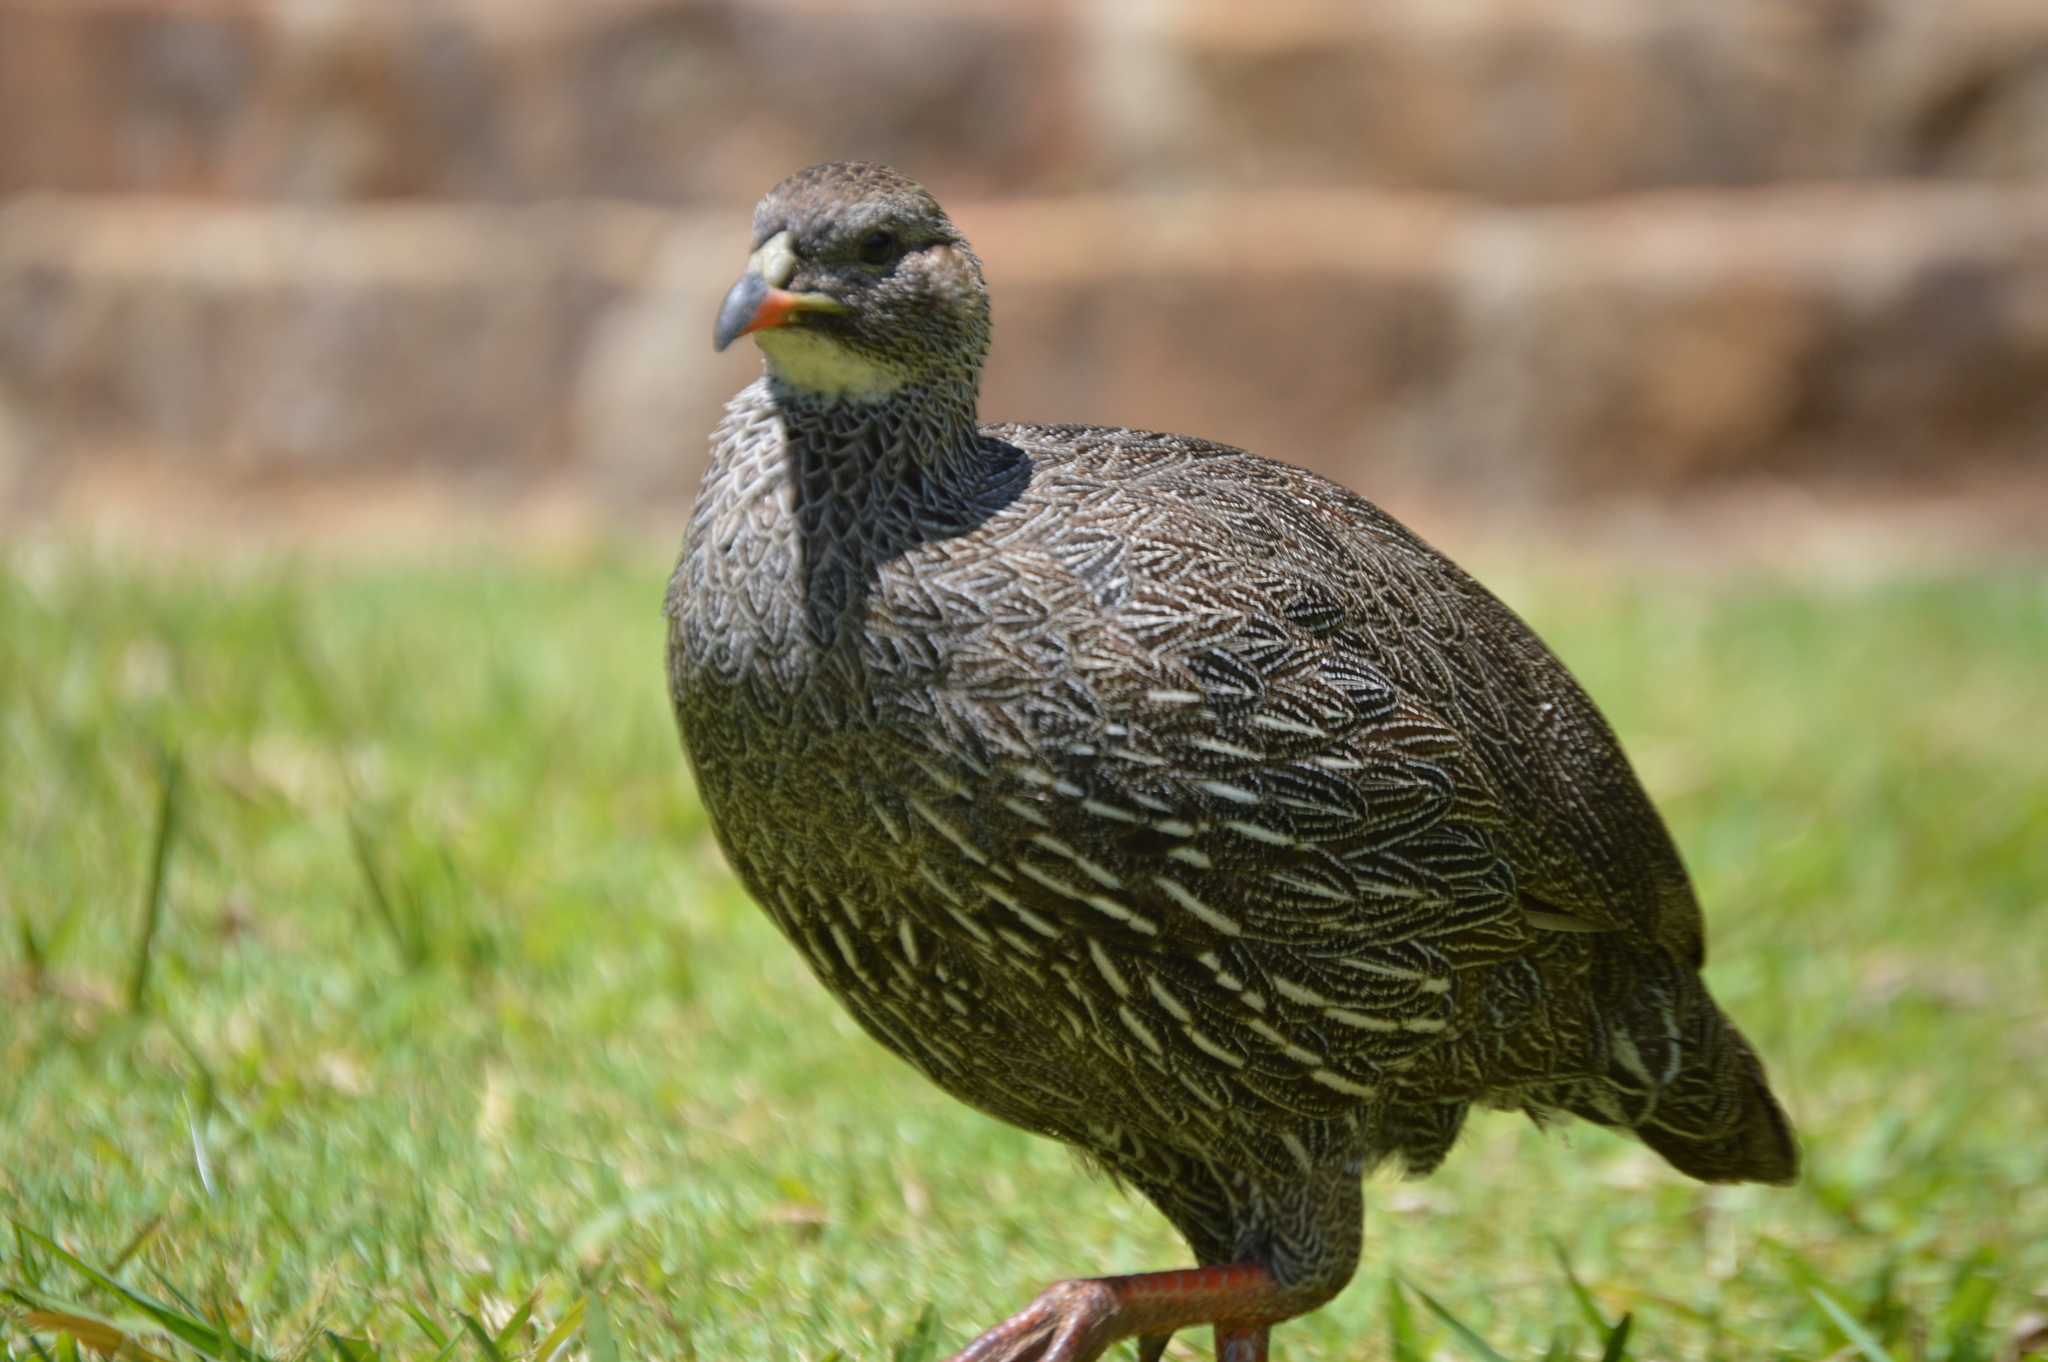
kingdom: Animalia
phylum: Chordata
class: Aves
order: Galliformes
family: Phasianidae
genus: Pternistis
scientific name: Pternistis capensis
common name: Cape spurfowl
